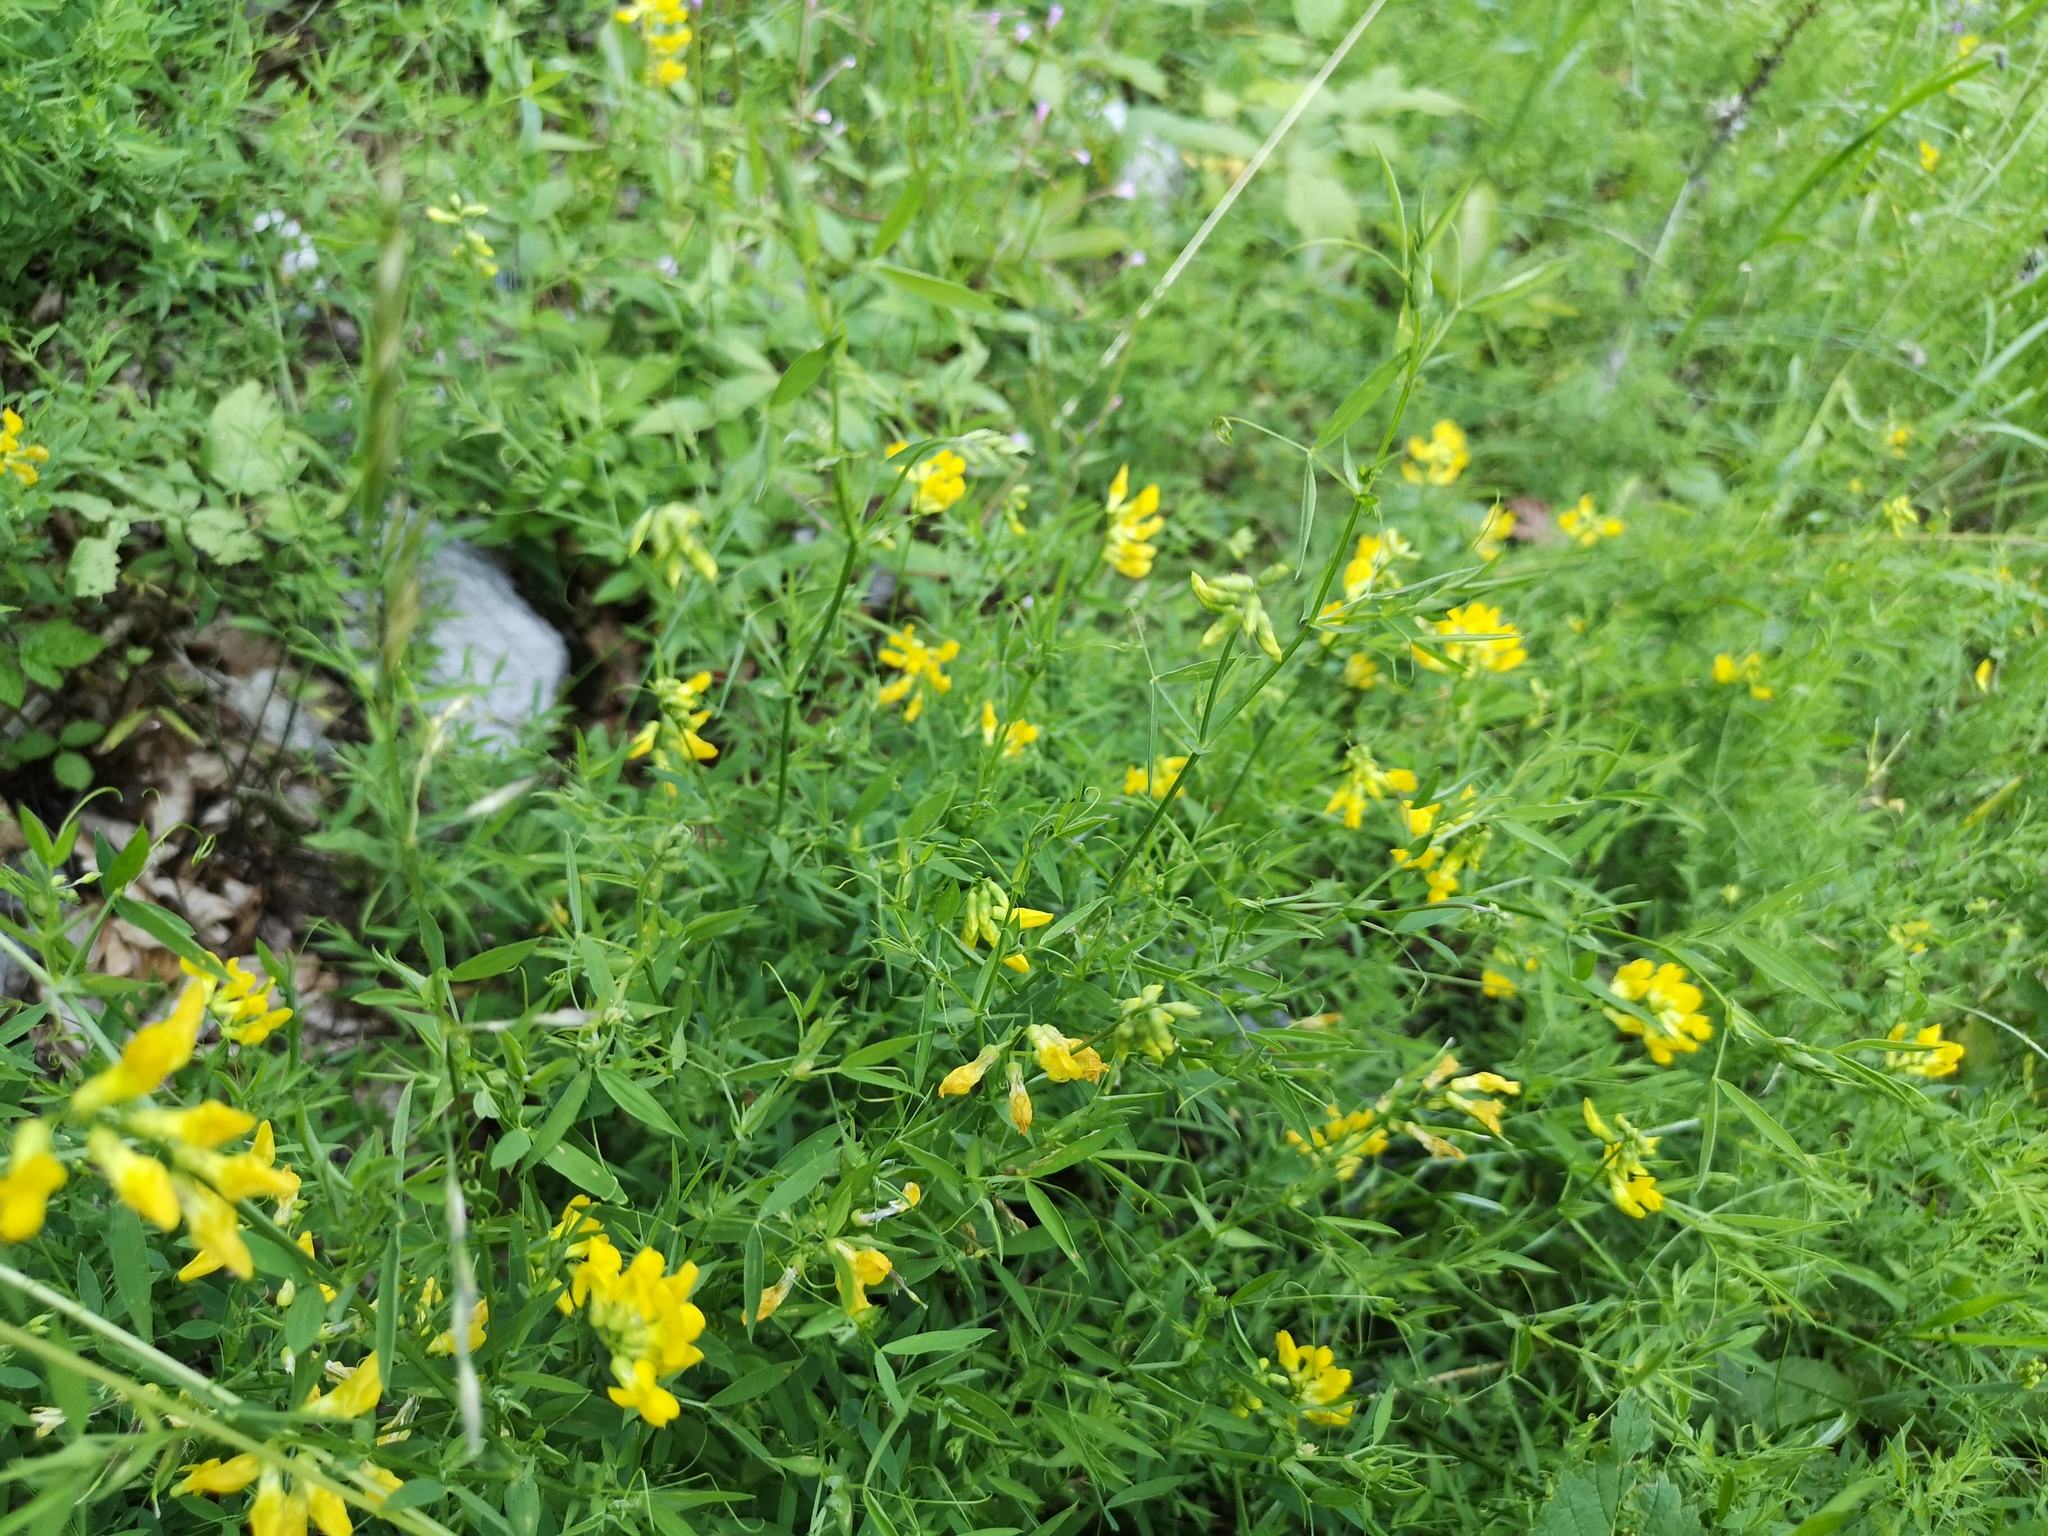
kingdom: Plantae
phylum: Tracheophyta
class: Magnoliopsida
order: Fabales
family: Fabaceae
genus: Lathyrus
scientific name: Lathyrus pratensis
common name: Meadow vetchling
